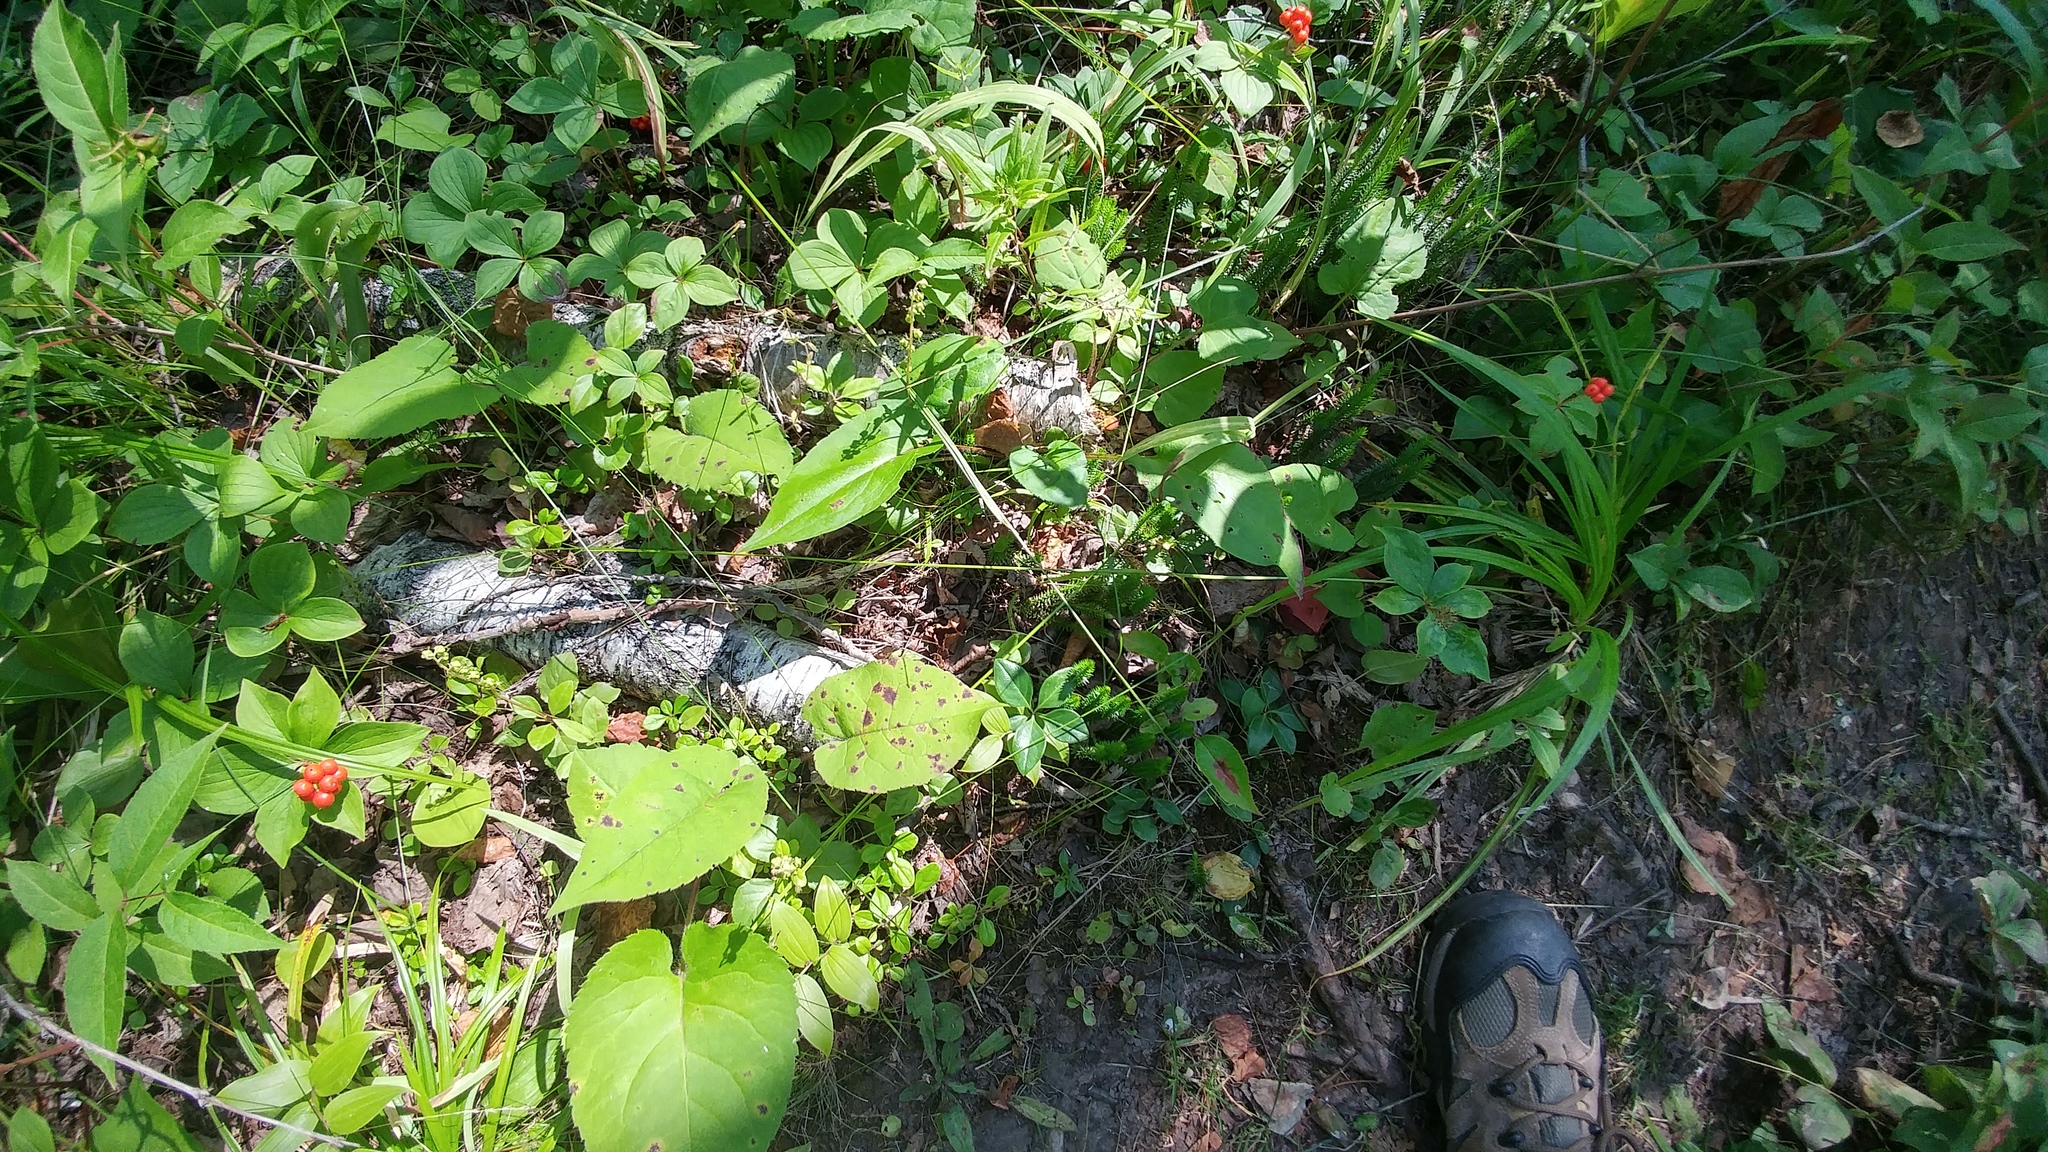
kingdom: Plantae
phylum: Tracheophyta
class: Magnoliopsida
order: Cornales
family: Cornaceae
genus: Cornus
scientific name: Cornus canadensis
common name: Creeping dogwood
